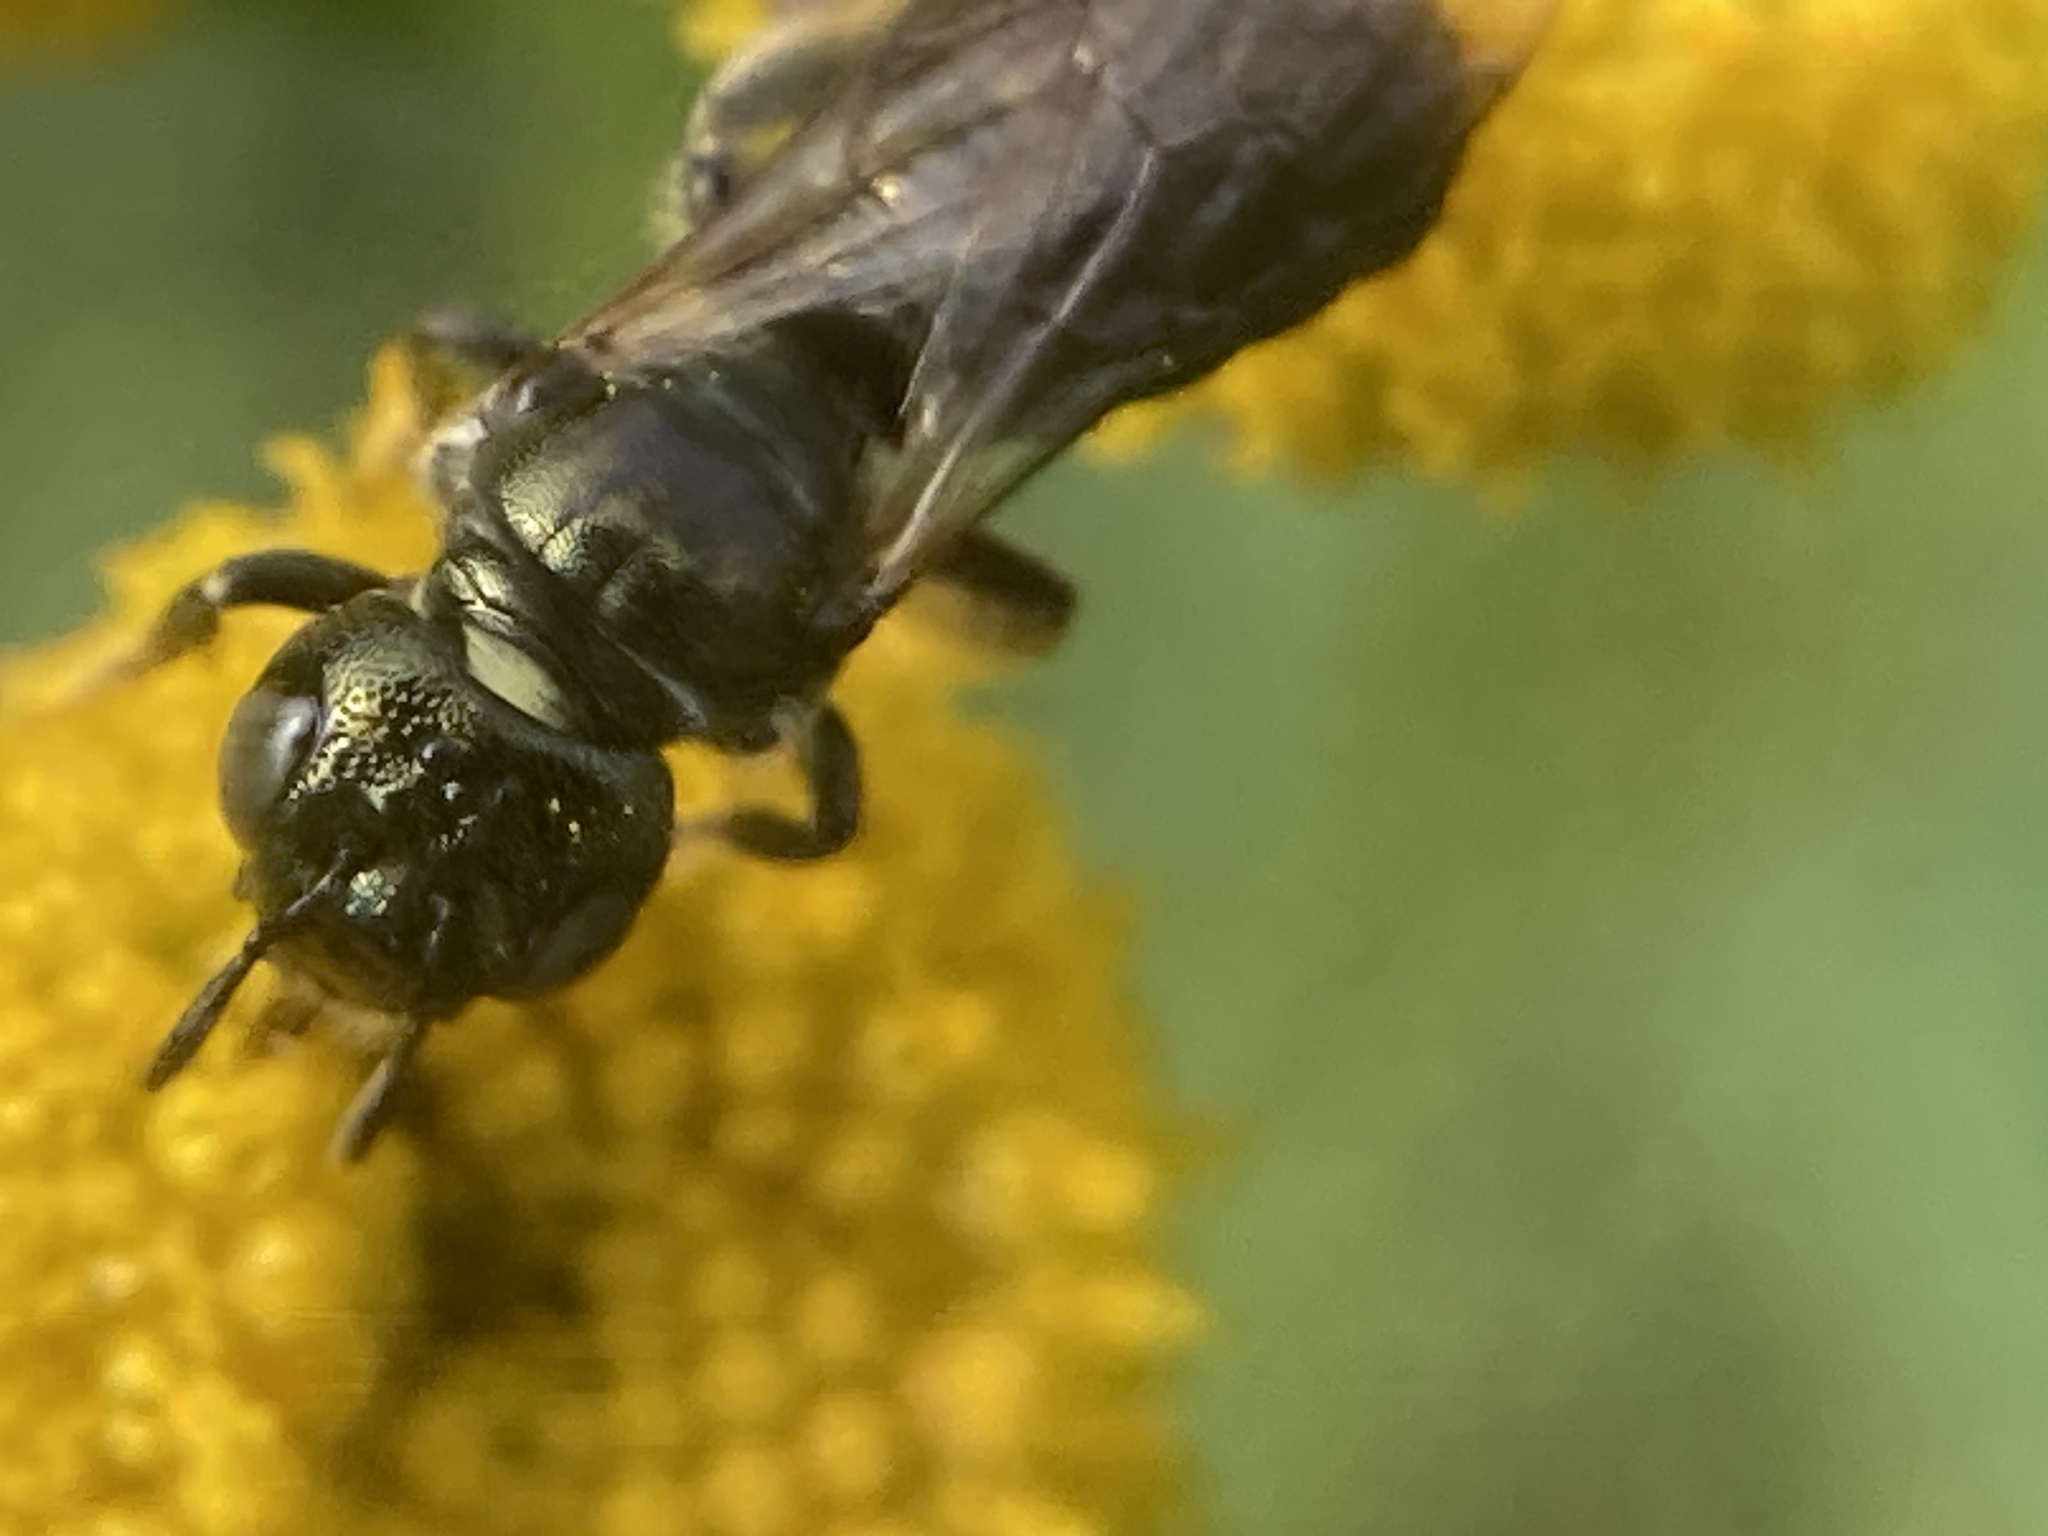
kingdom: Animalia
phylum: Arthropoda
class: Insecta
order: Hymenoptera
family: Apidae
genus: Ceratina
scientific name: Ceratina calcarata
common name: Spurred carpenter bee
